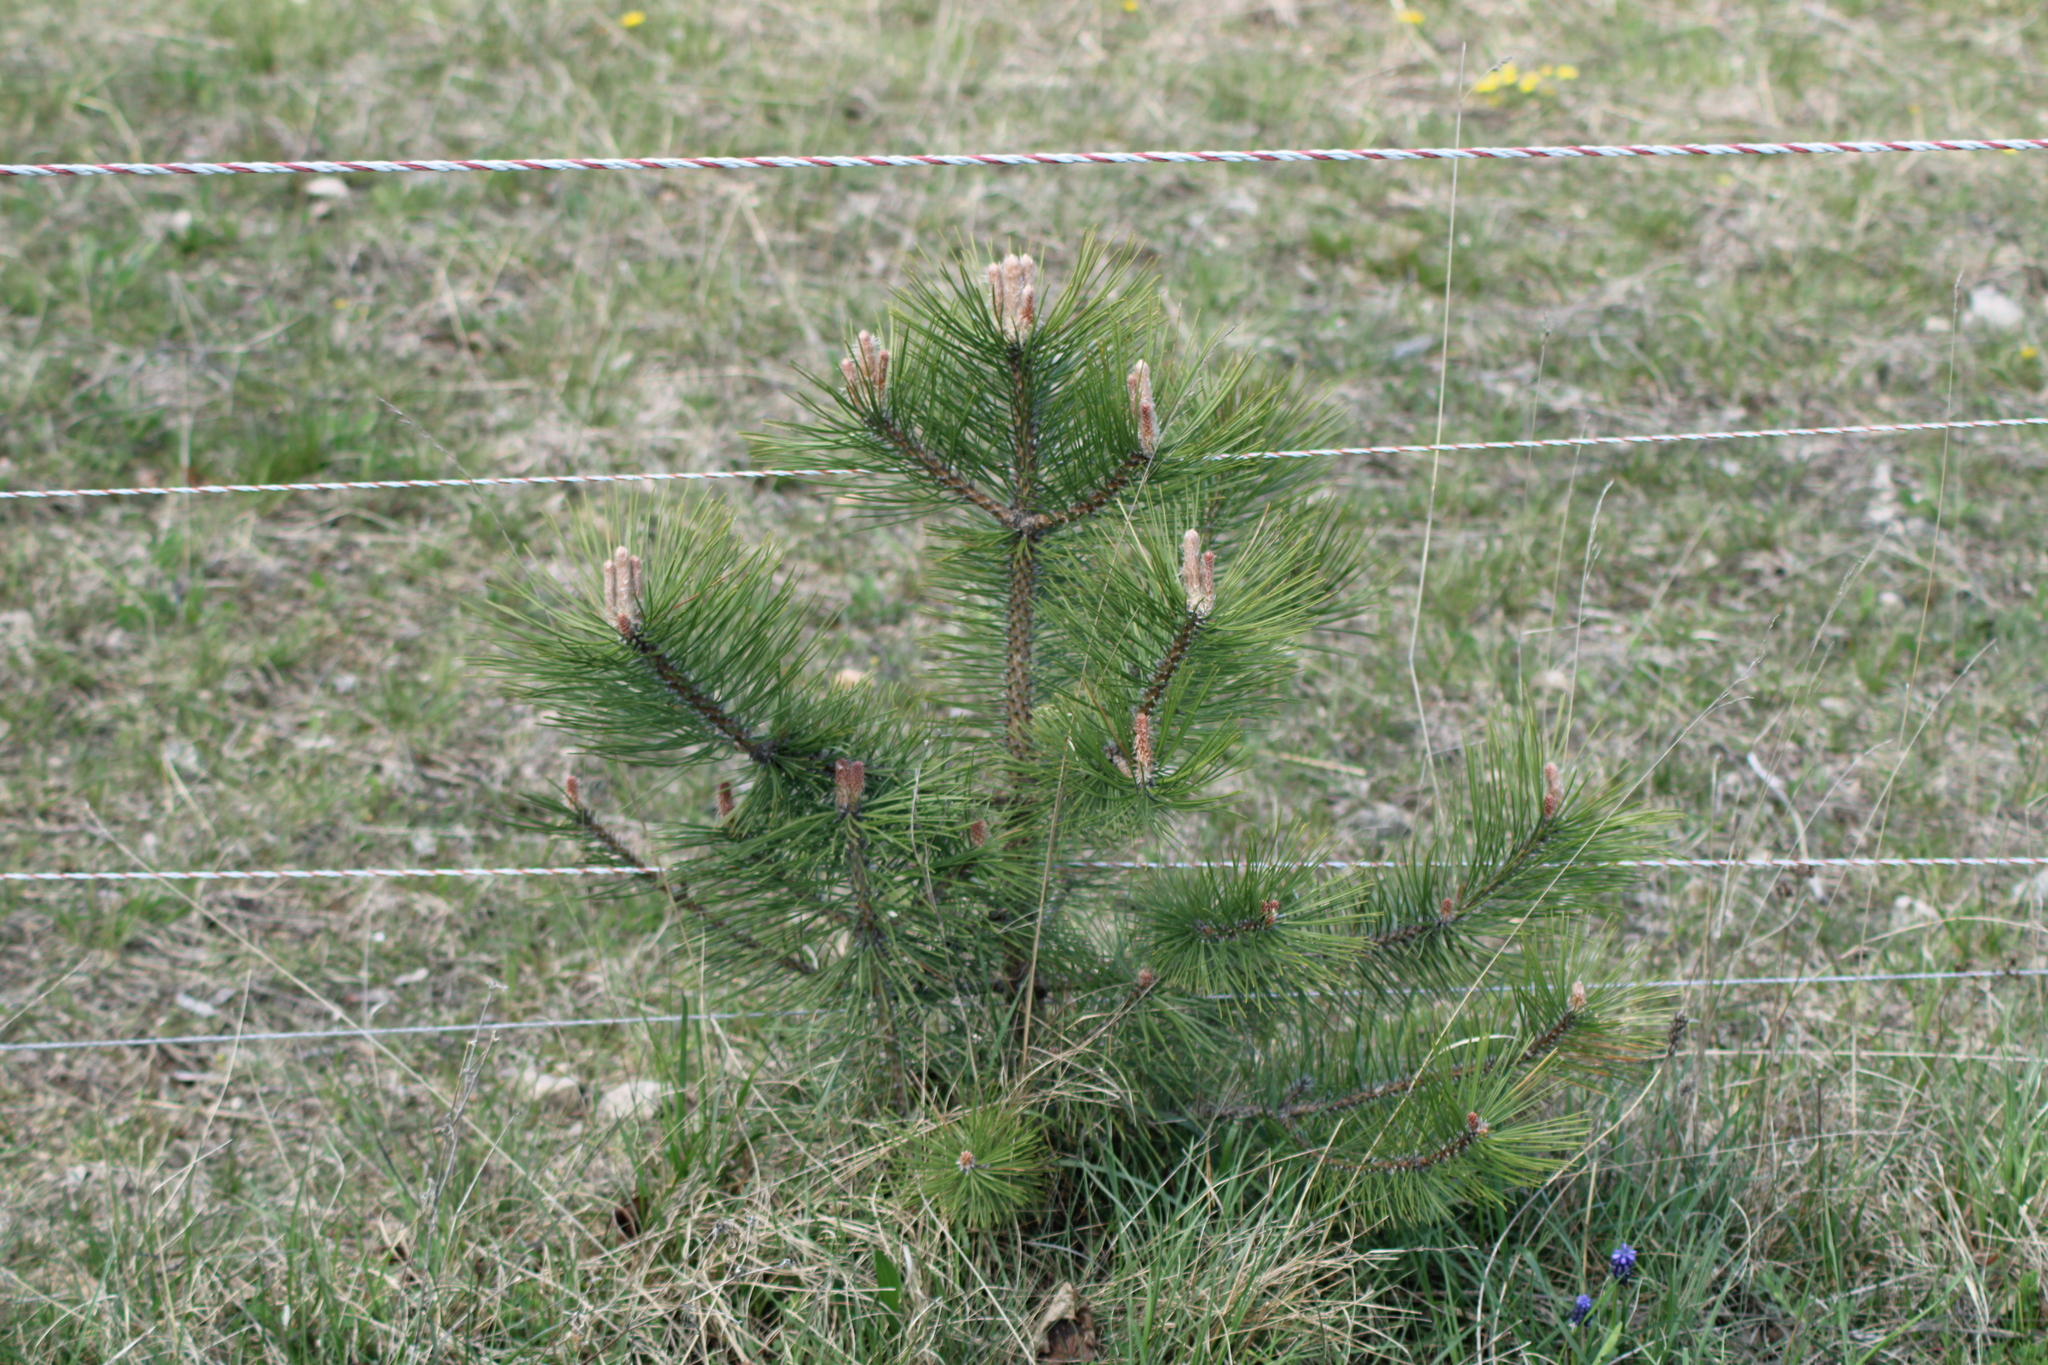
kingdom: Plantae
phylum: Tracheophyta
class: Pinopsida
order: Pinales
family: Pinaceae
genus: Pinus
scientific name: Pinus nigra
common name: Austrian pine
